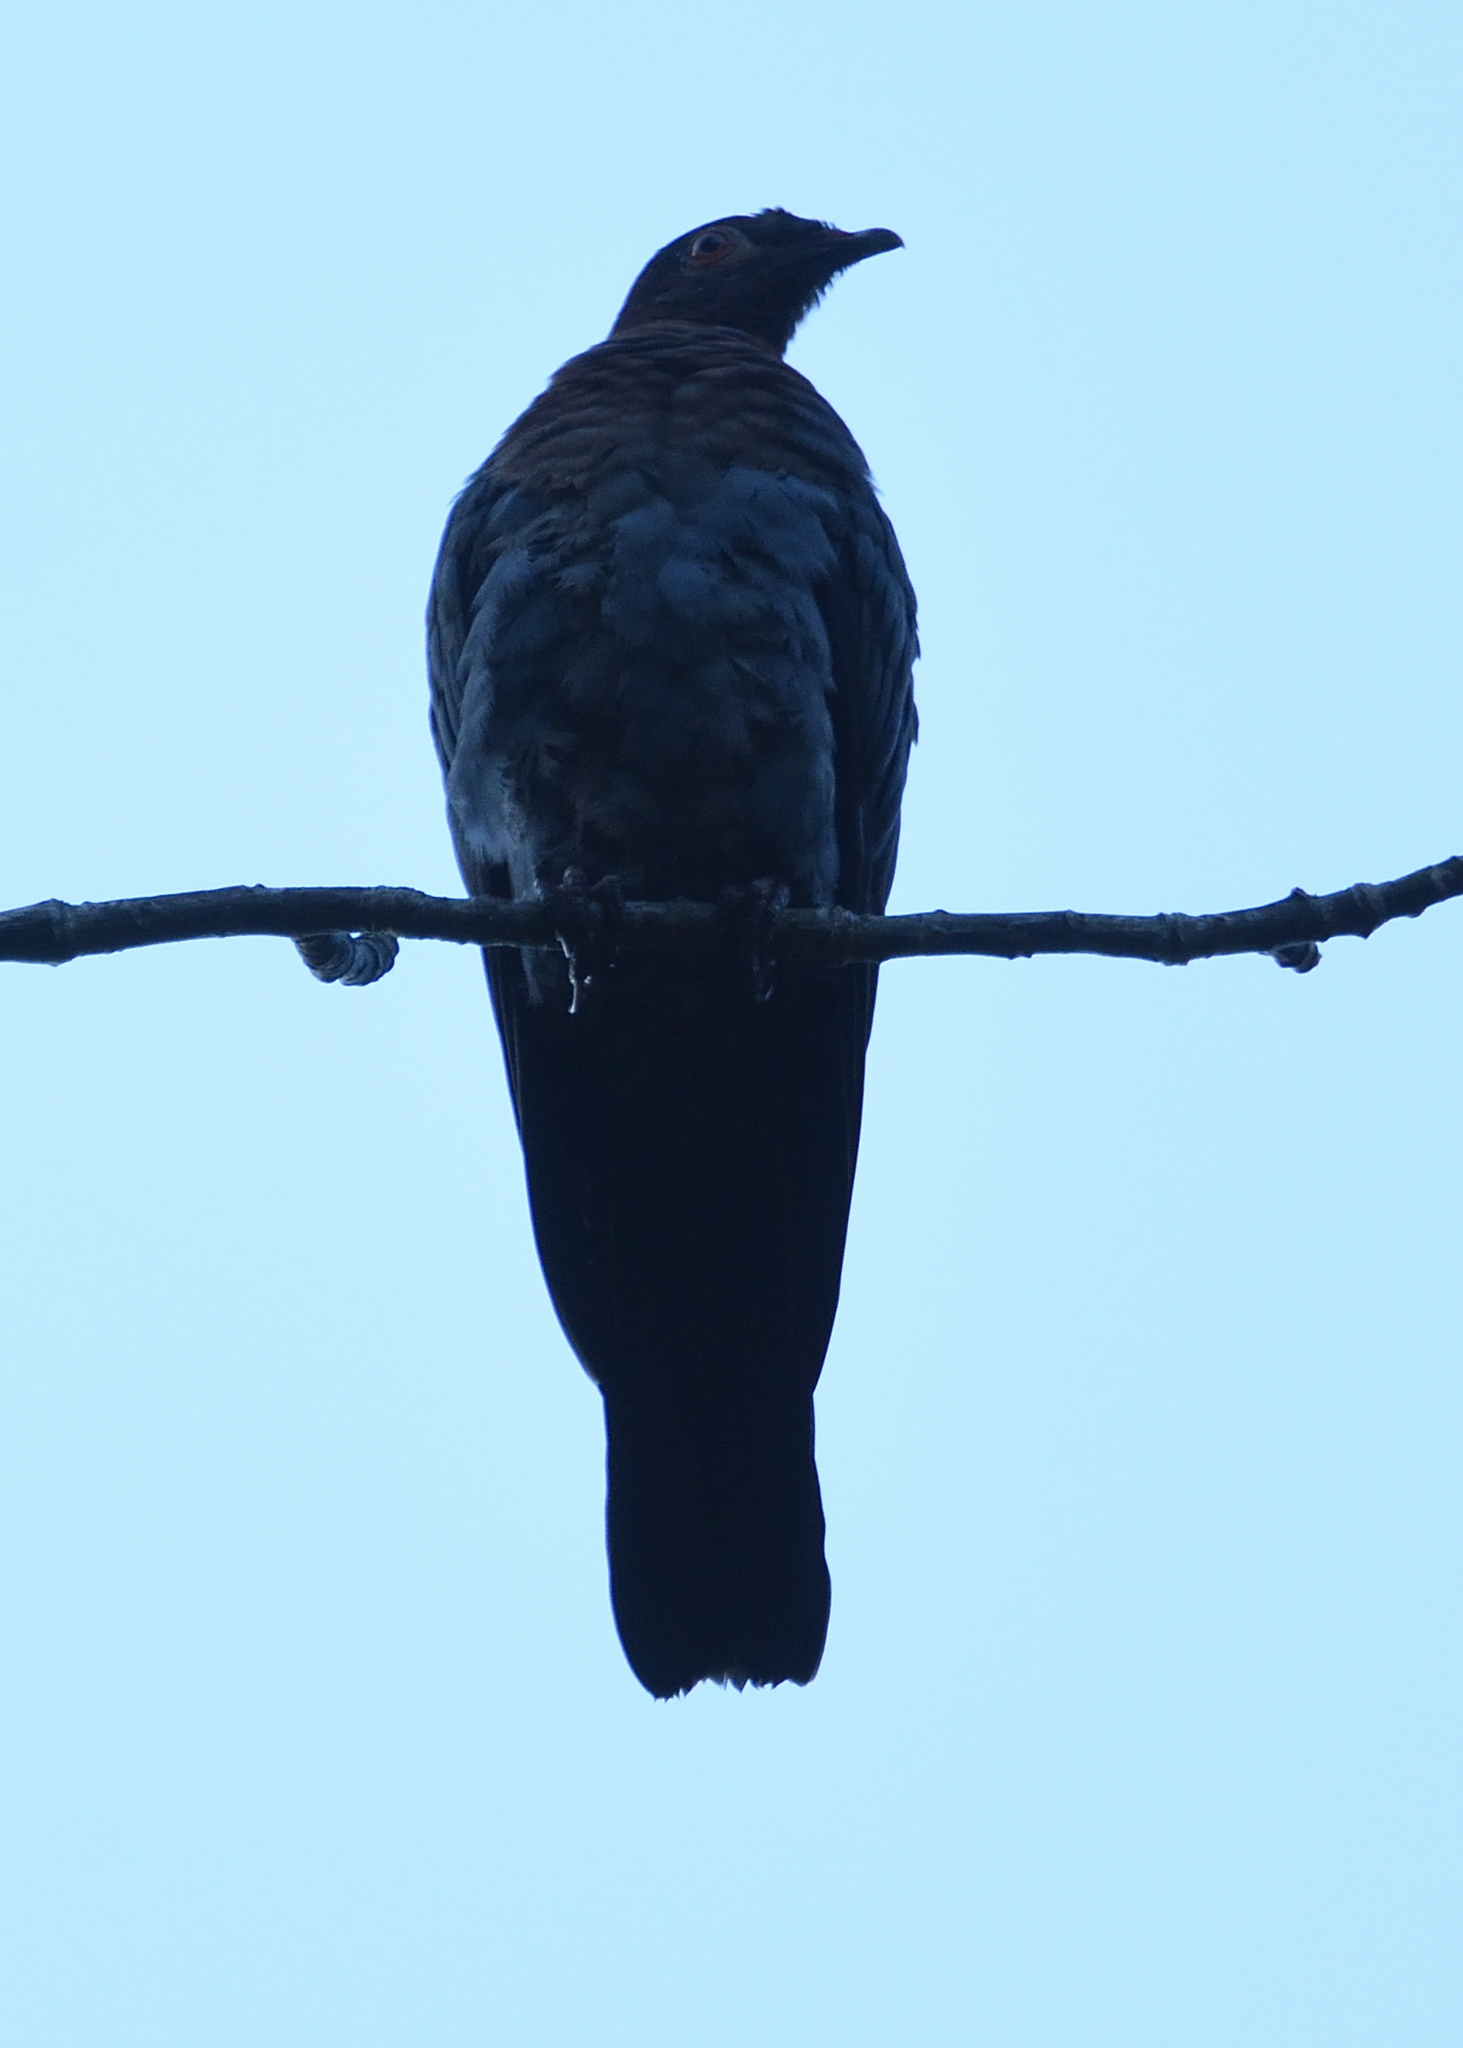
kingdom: Animalia
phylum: Chordata
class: Aves
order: Columbiformes
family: Columbidae
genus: Patagioenas
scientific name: Patagioenas squamosa
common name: Scaly-naped pigeon
